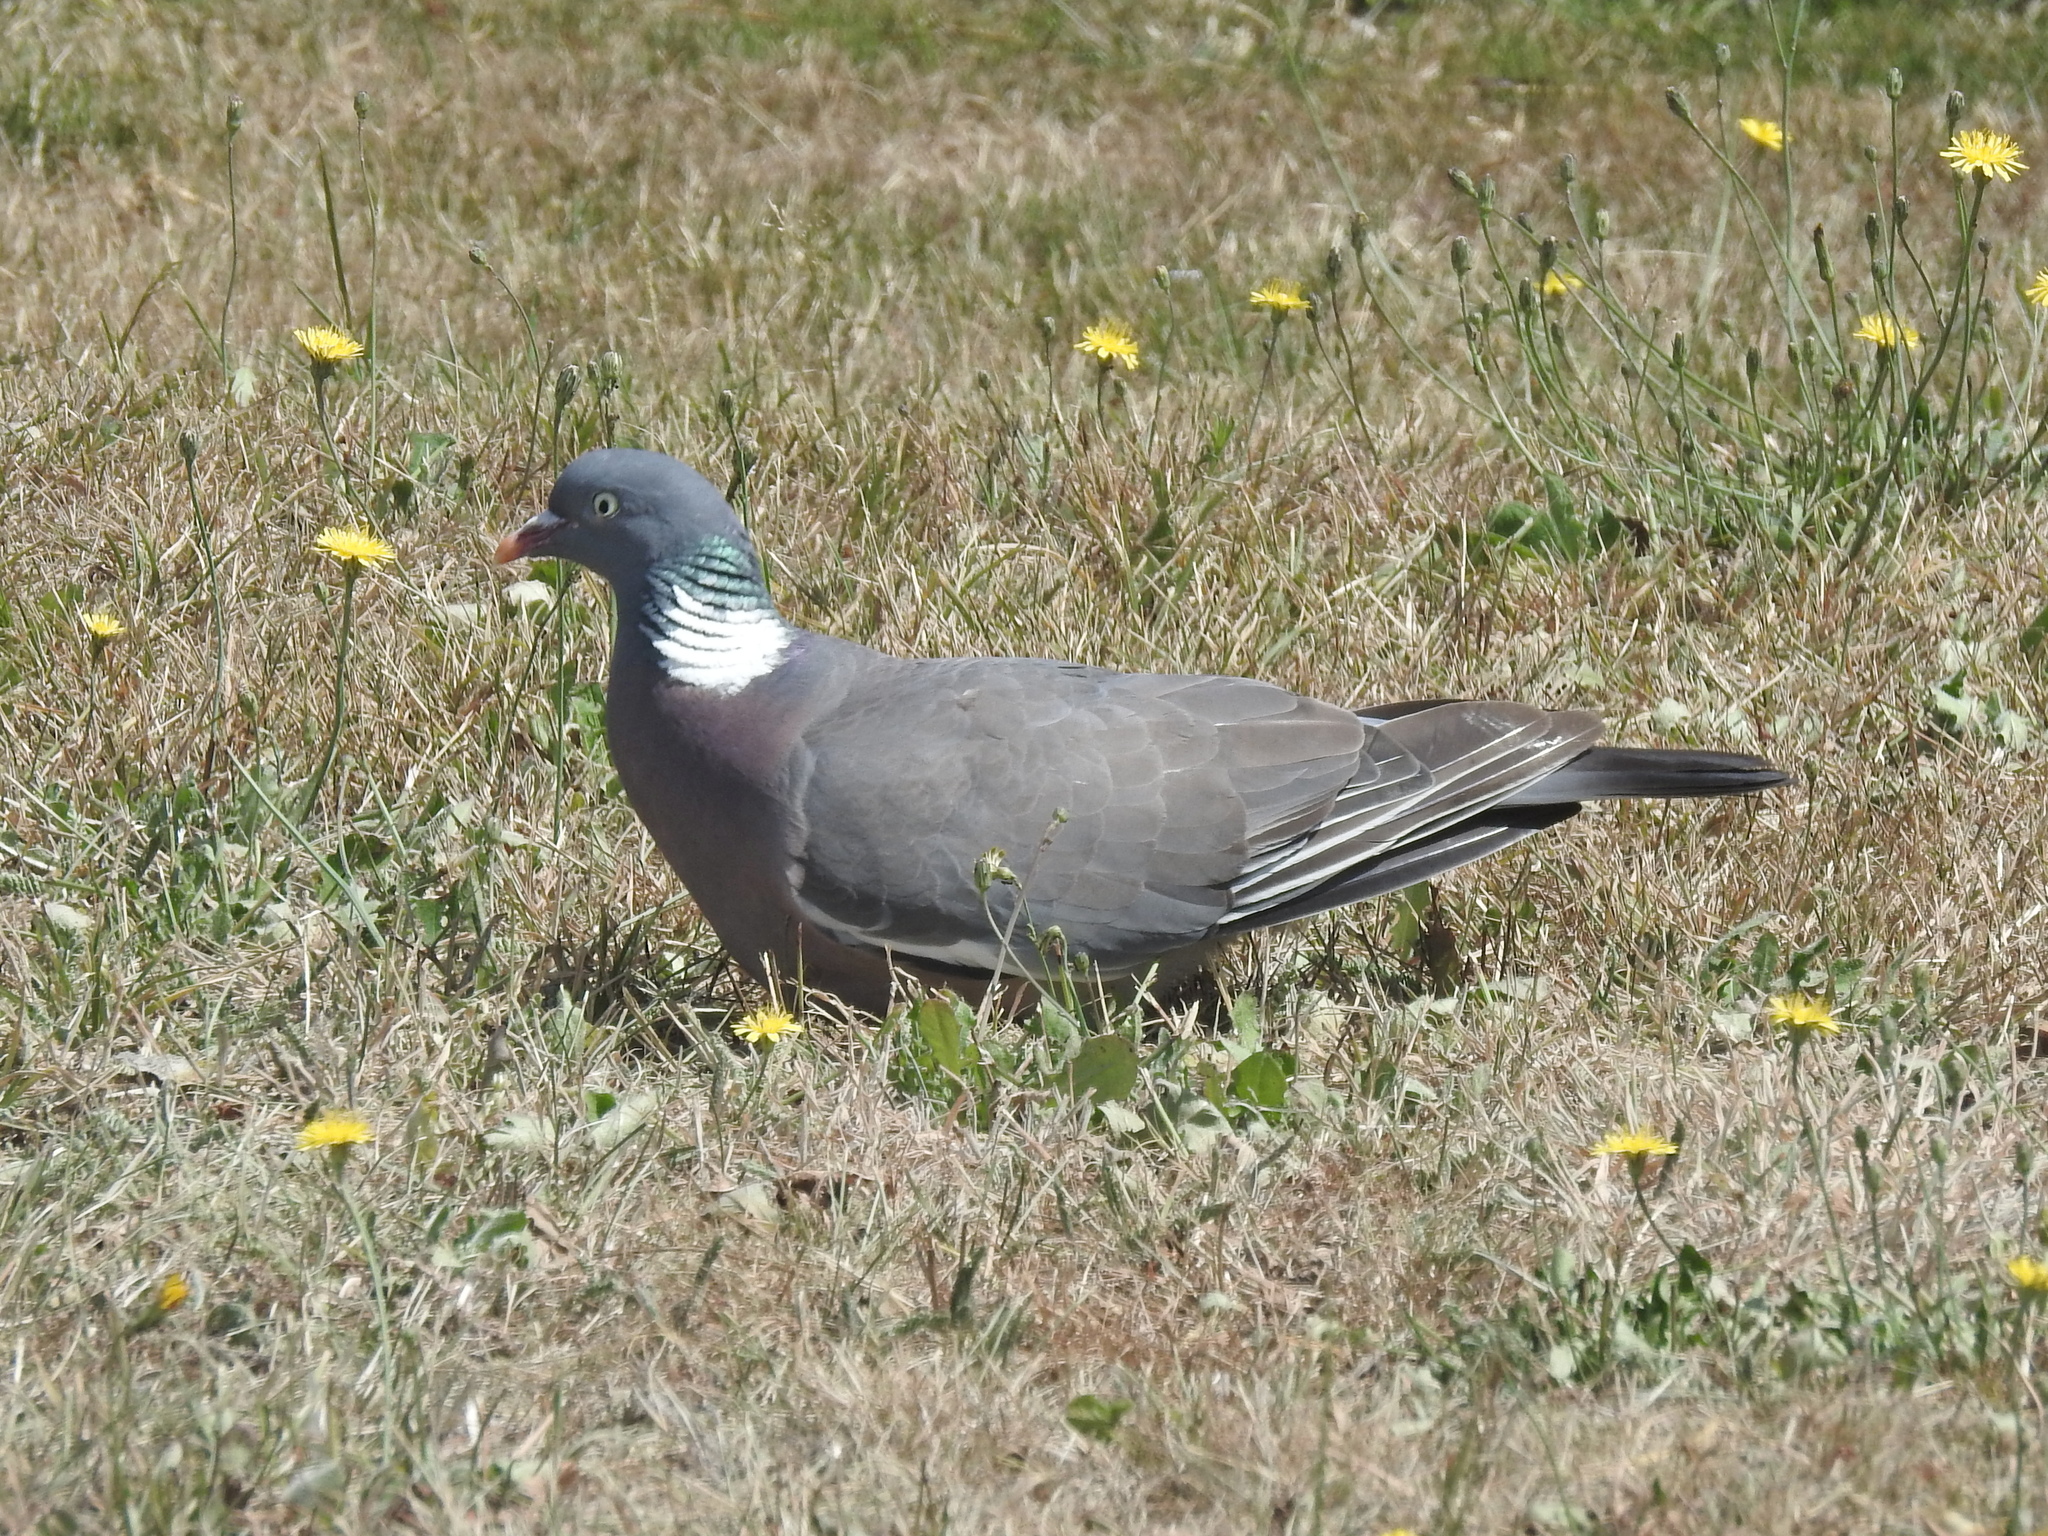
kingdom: Animalia
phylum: Chordata
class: Aves
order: Columbiformes
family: Columbidae
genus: Columba
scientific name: Columba palumbus
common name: Common wood pigeon
